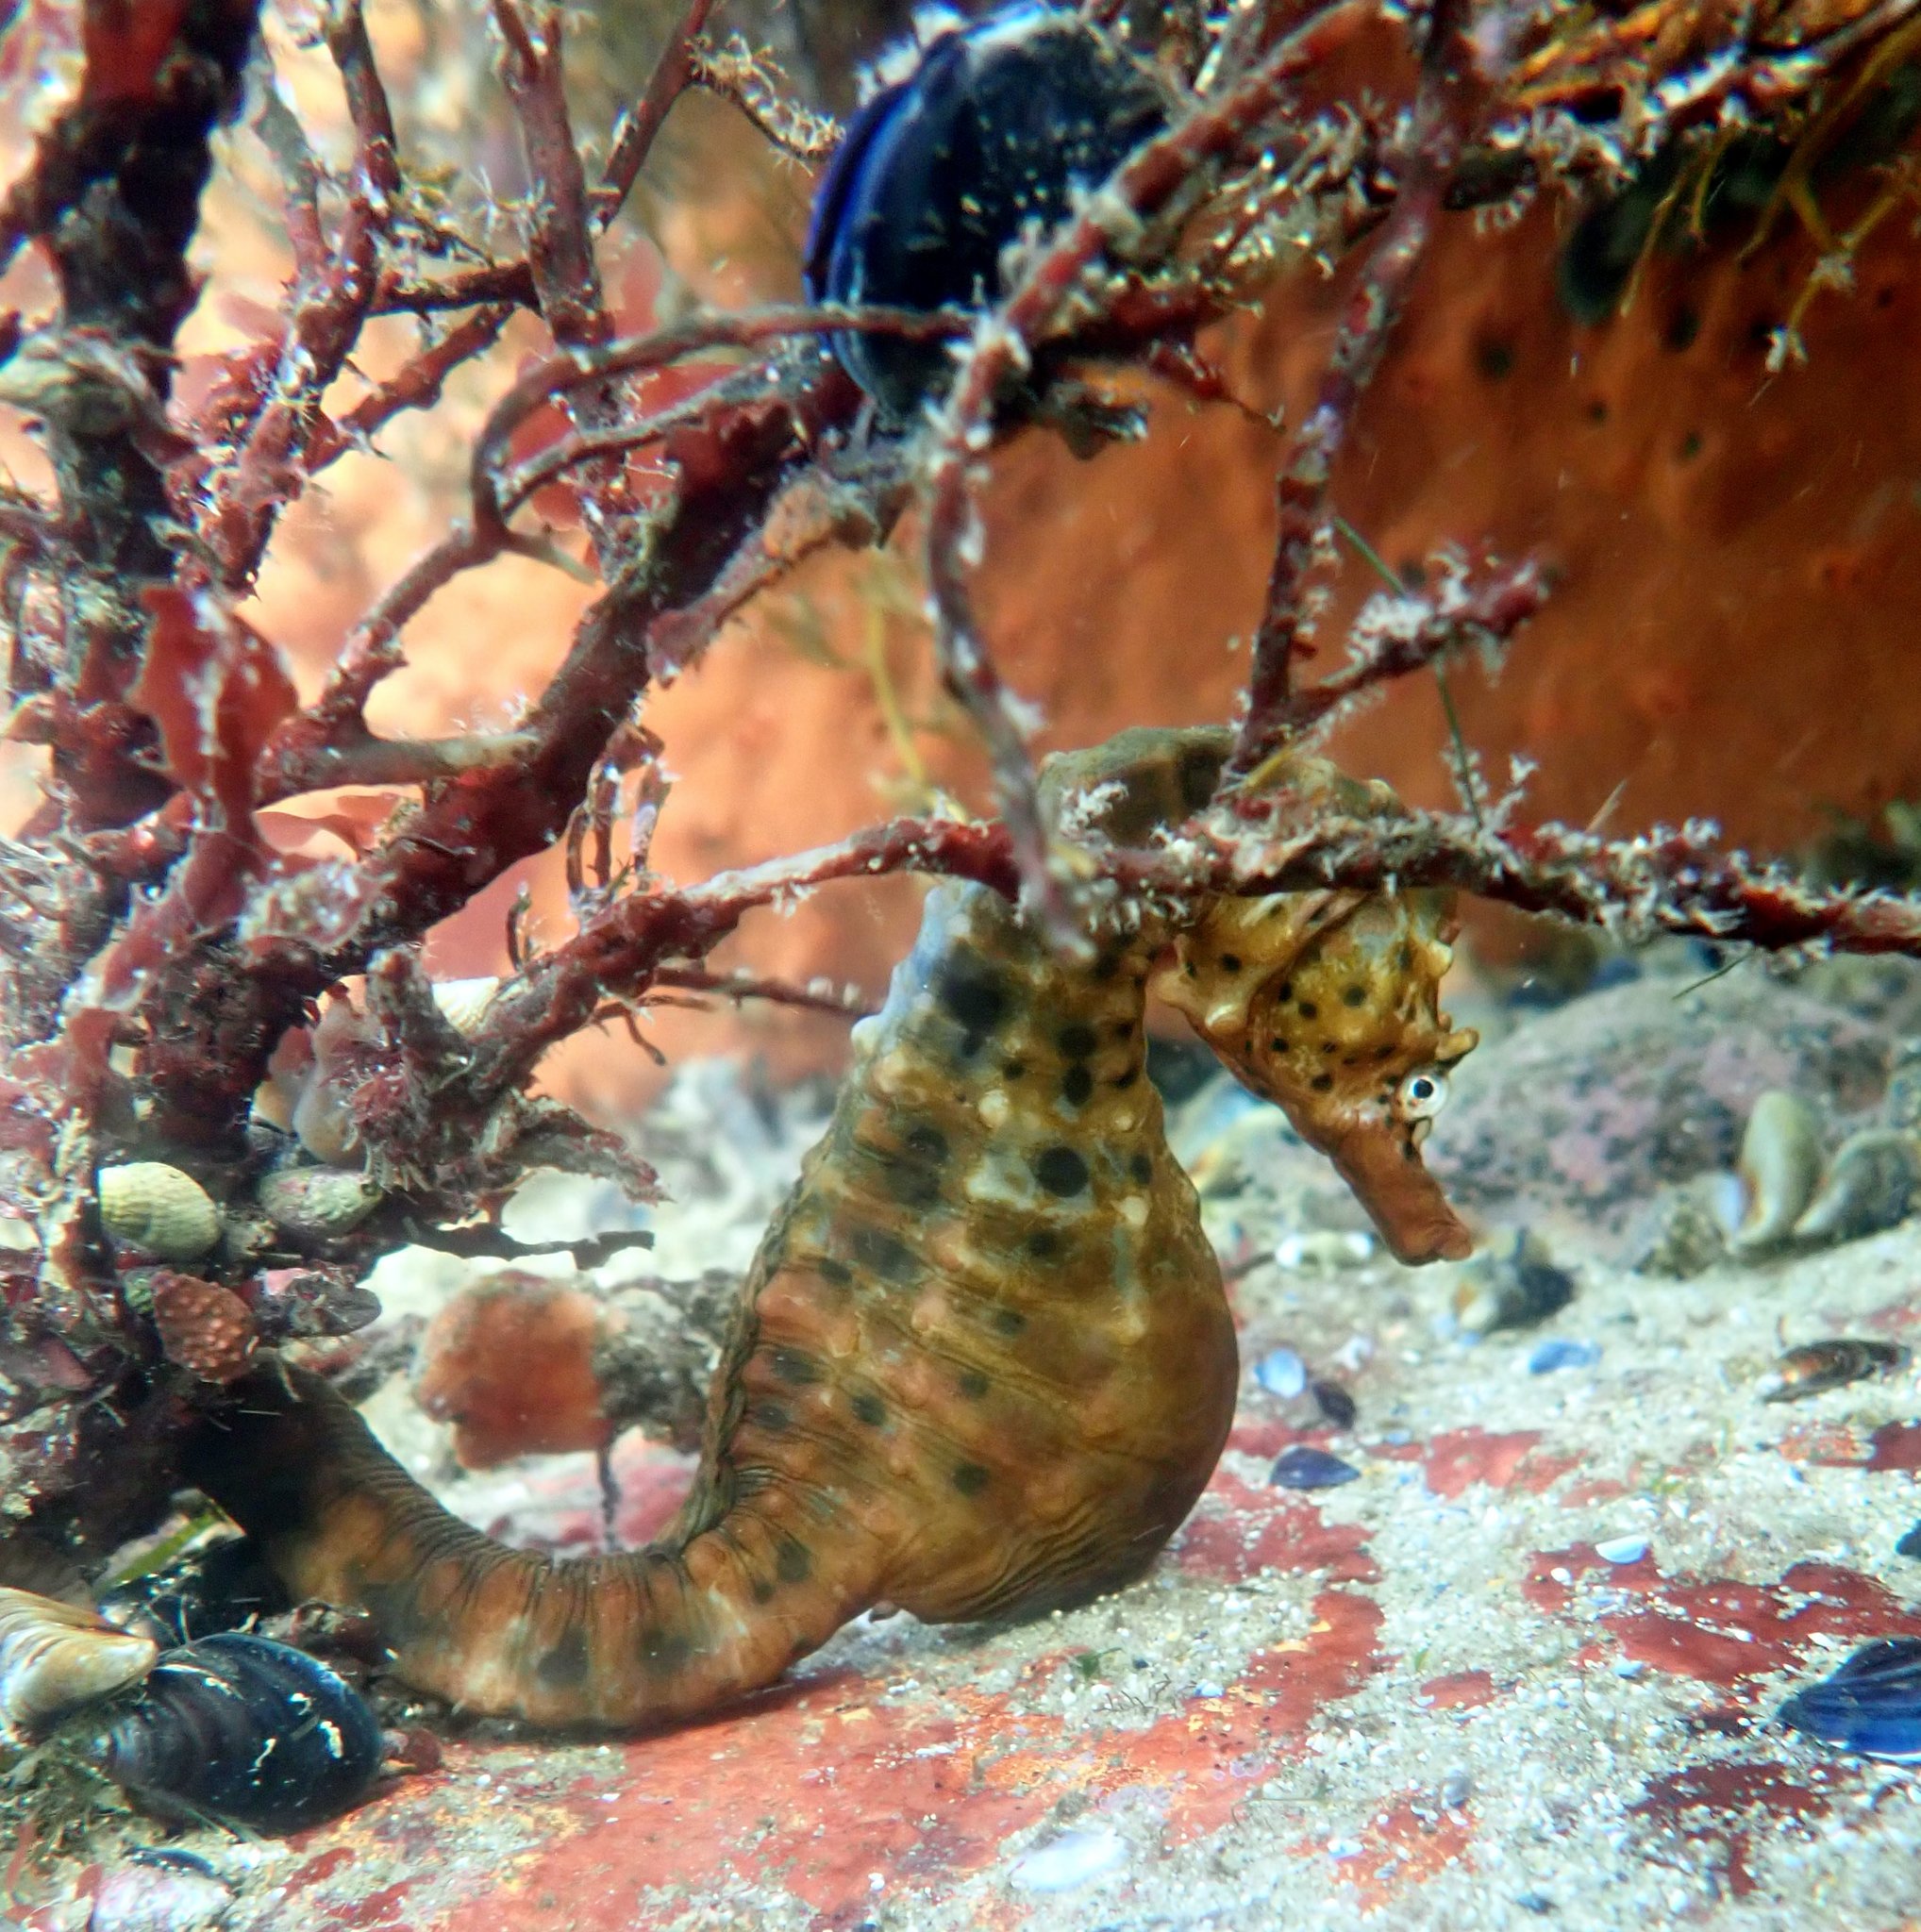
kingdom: Animalia
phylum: Chordata
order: Syngnathiformes
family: Syngnathidae
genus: Hippocampus
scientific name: Hippocampus abdominalis
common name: Big-belly seahorse
